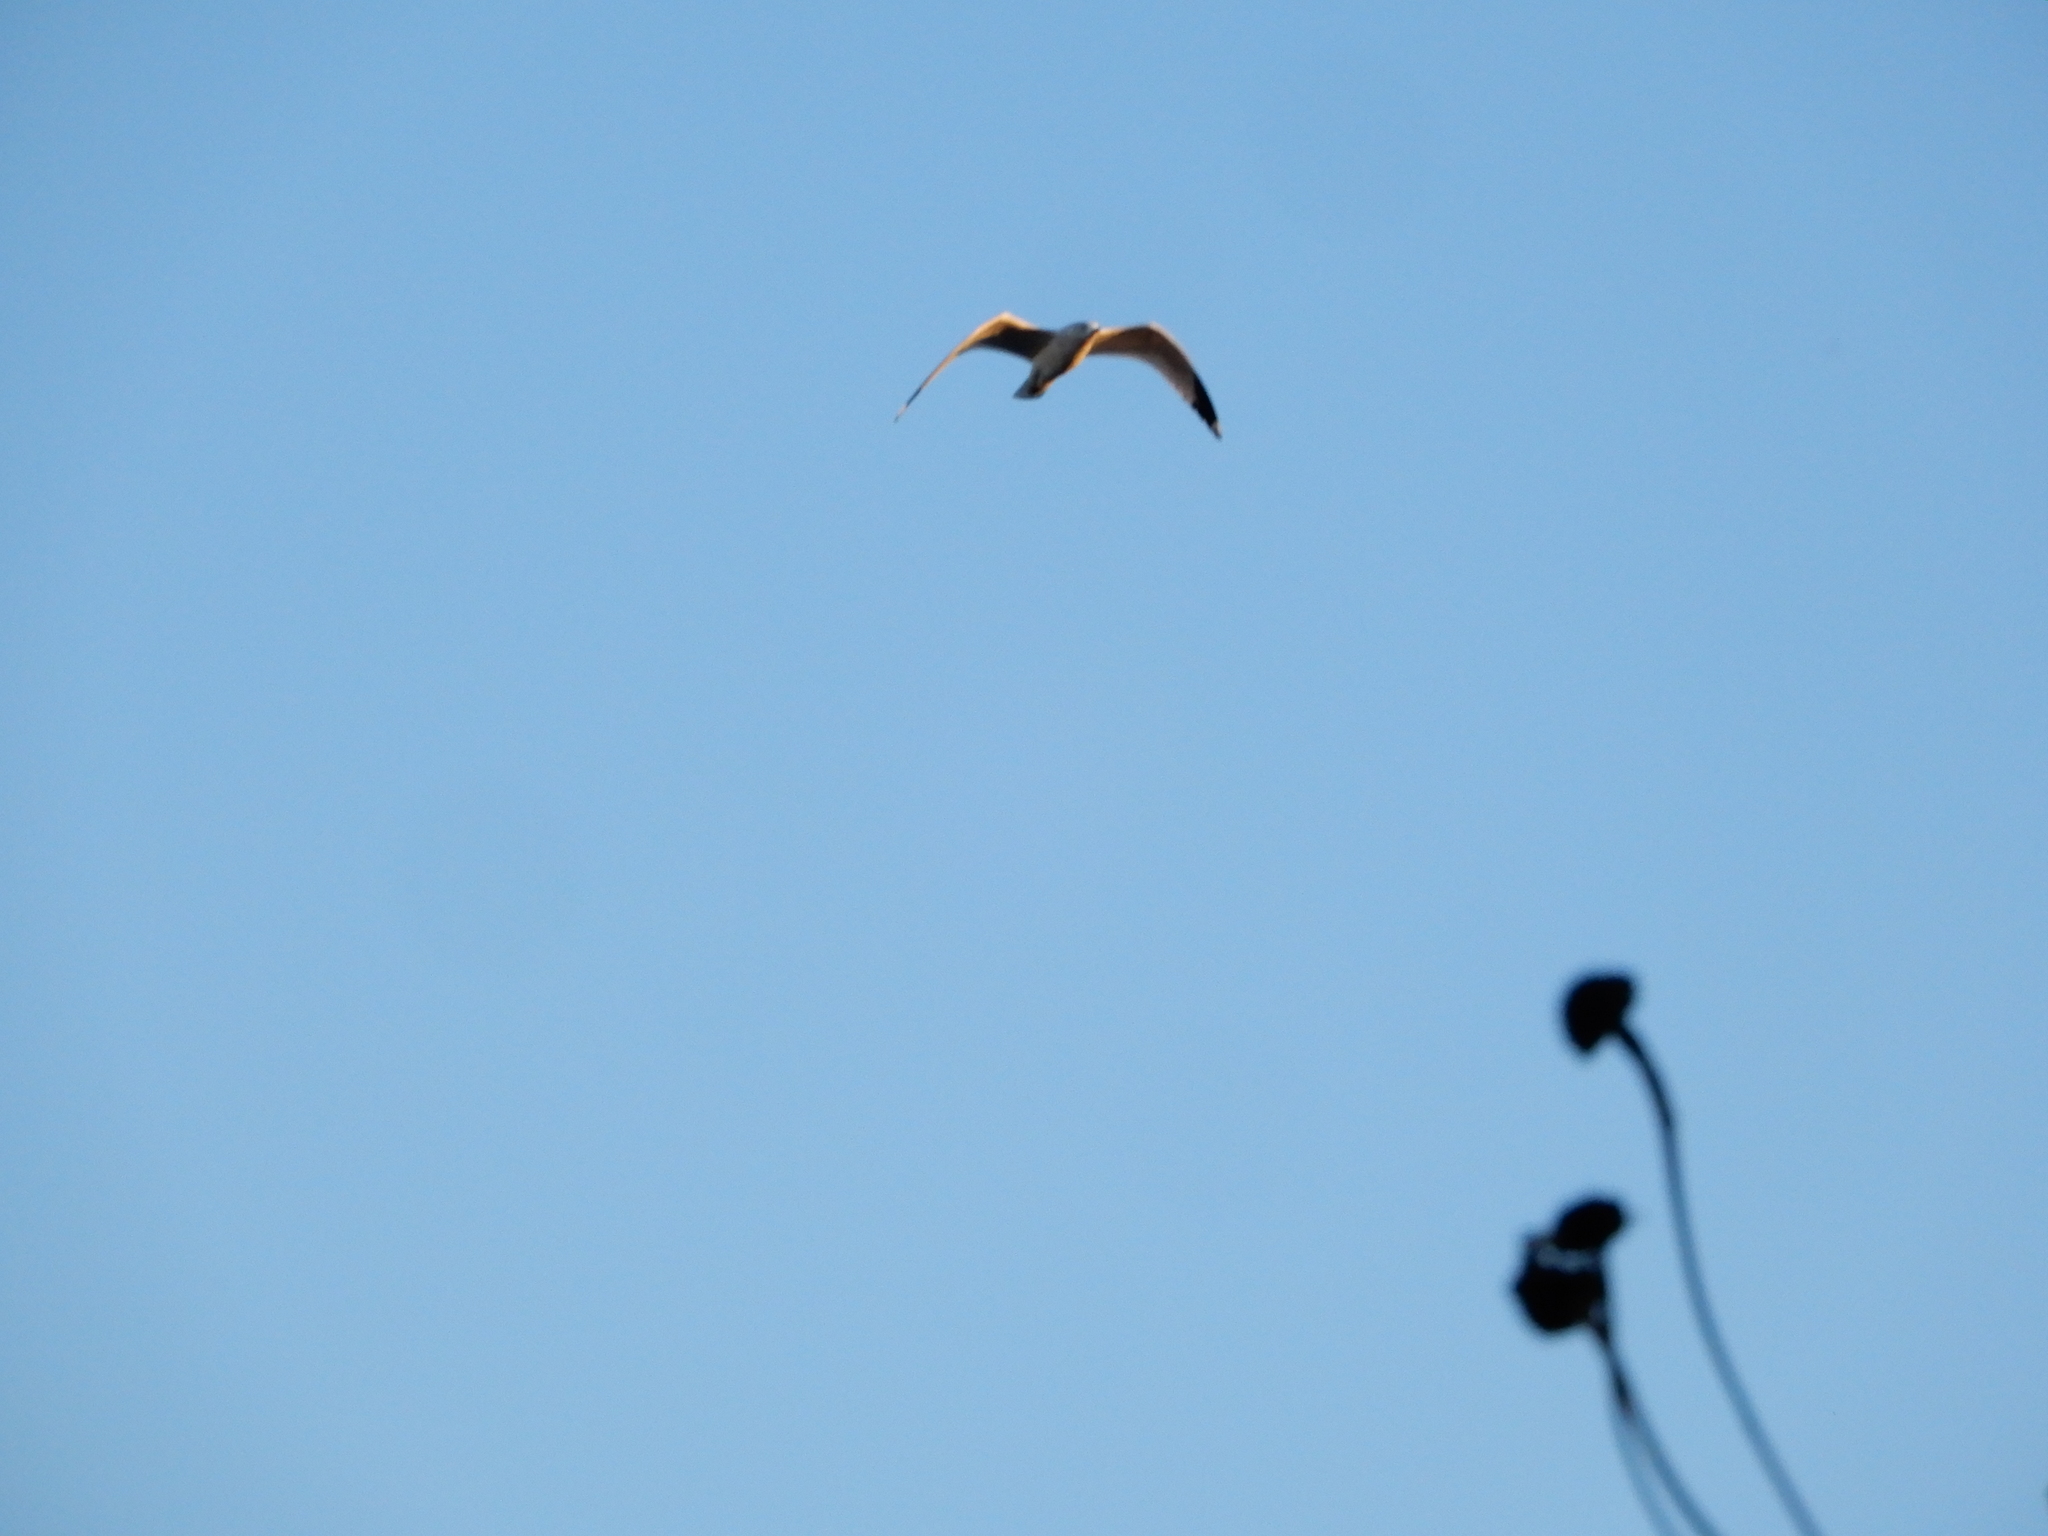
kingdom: Animalia
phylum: Chordata
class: Aves
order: Charadriiformes
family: Laridae
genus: Larus
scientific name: Larus delawarensis
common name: Ring-billed gull
